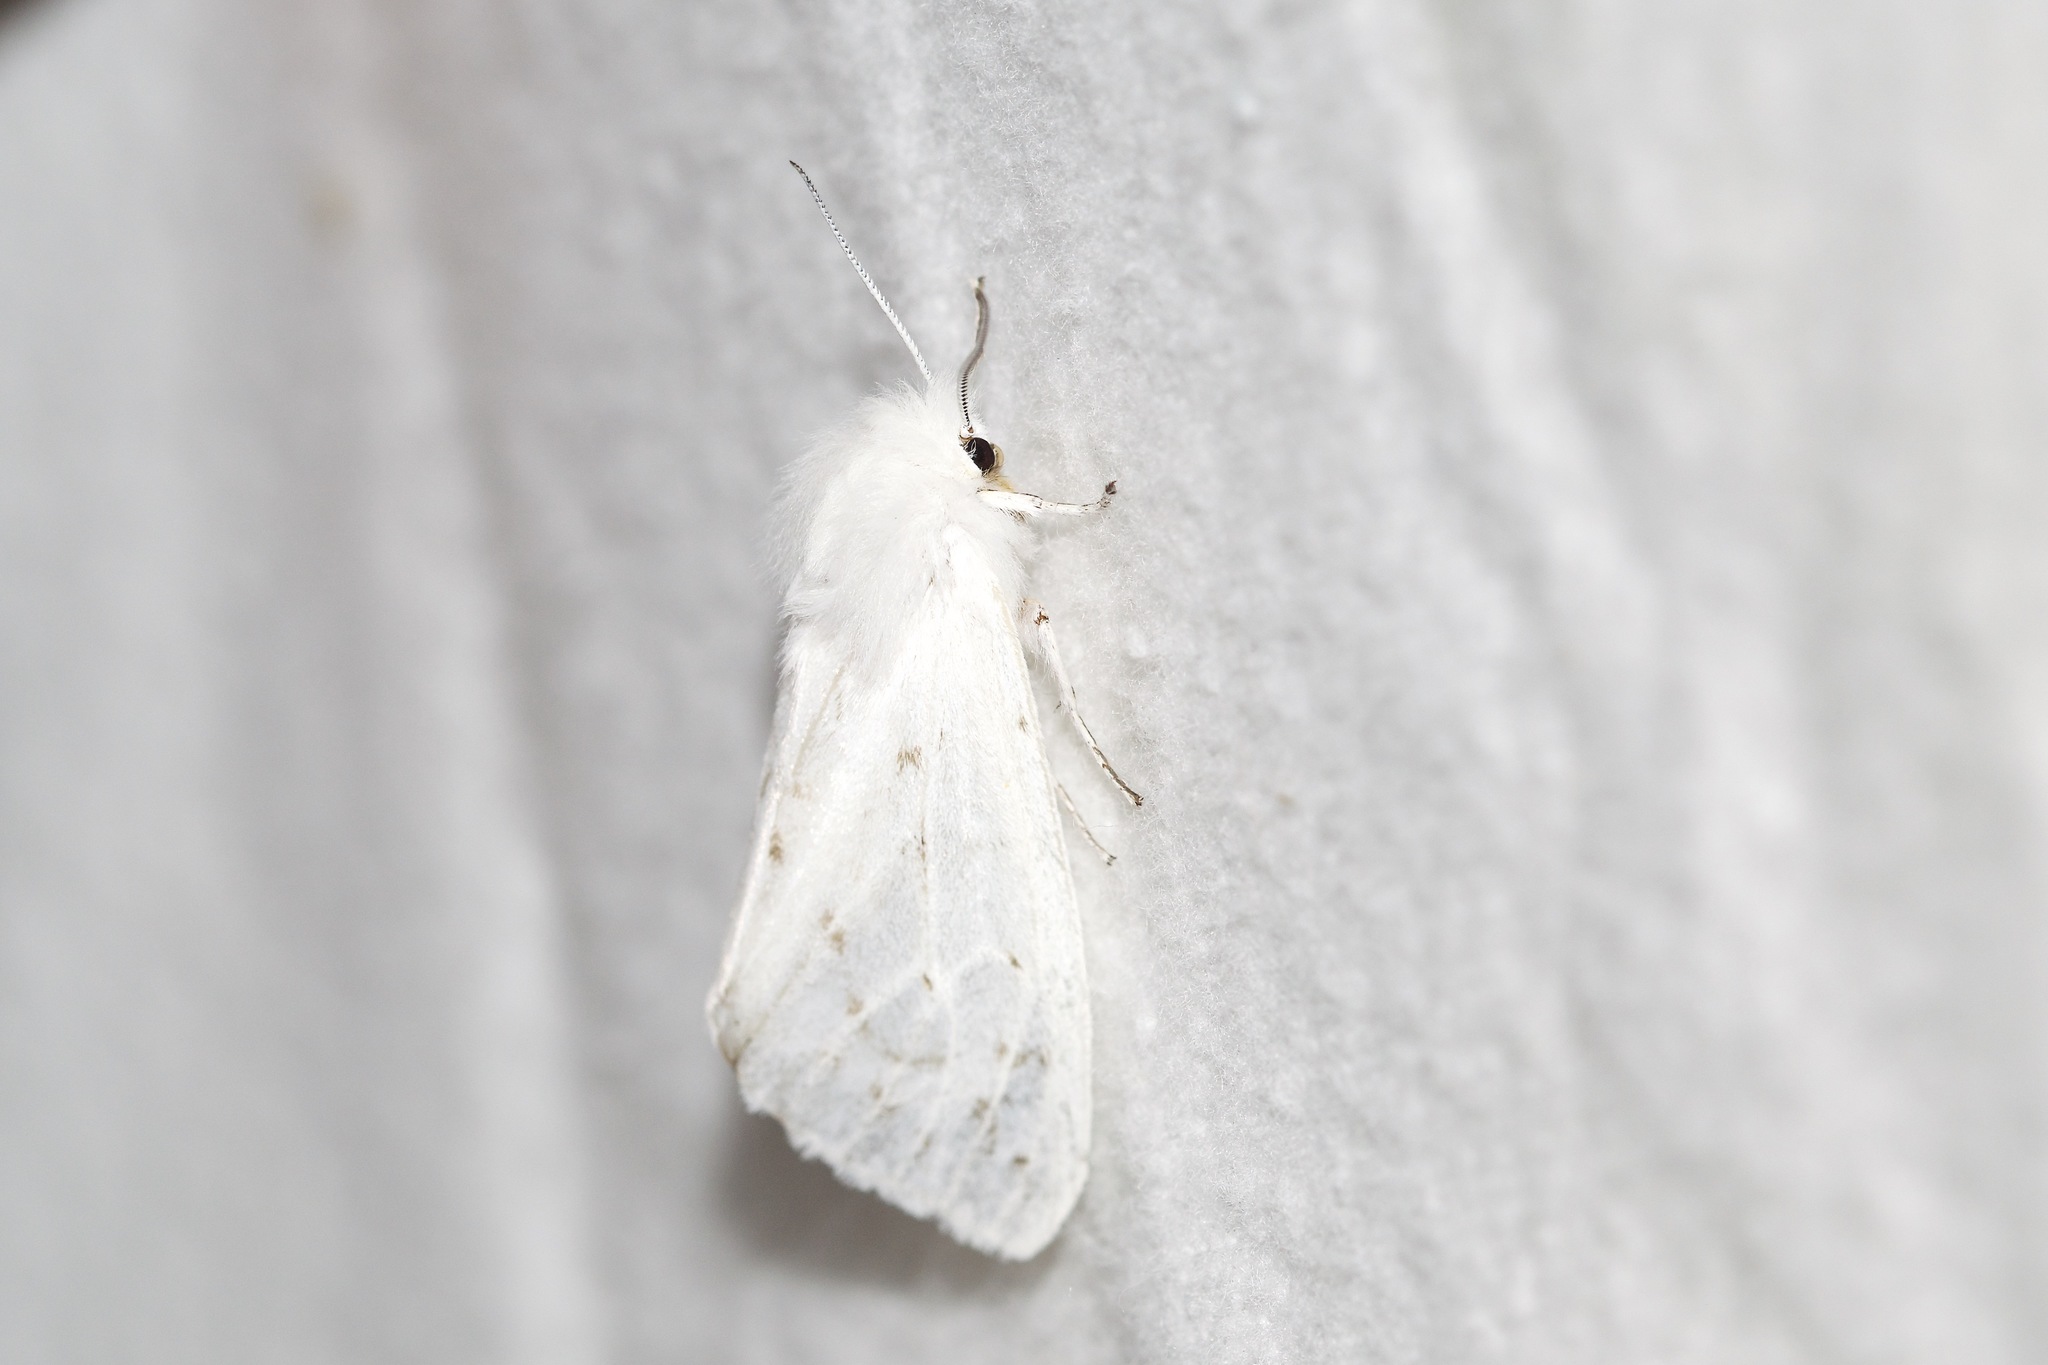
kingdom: Animalia
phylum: Arthropoda
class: Insecta
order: Lepidoptera
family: Erebidae
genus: Spilosoma
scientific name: Spilosoma congrua
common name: Agreeable tiger moth
